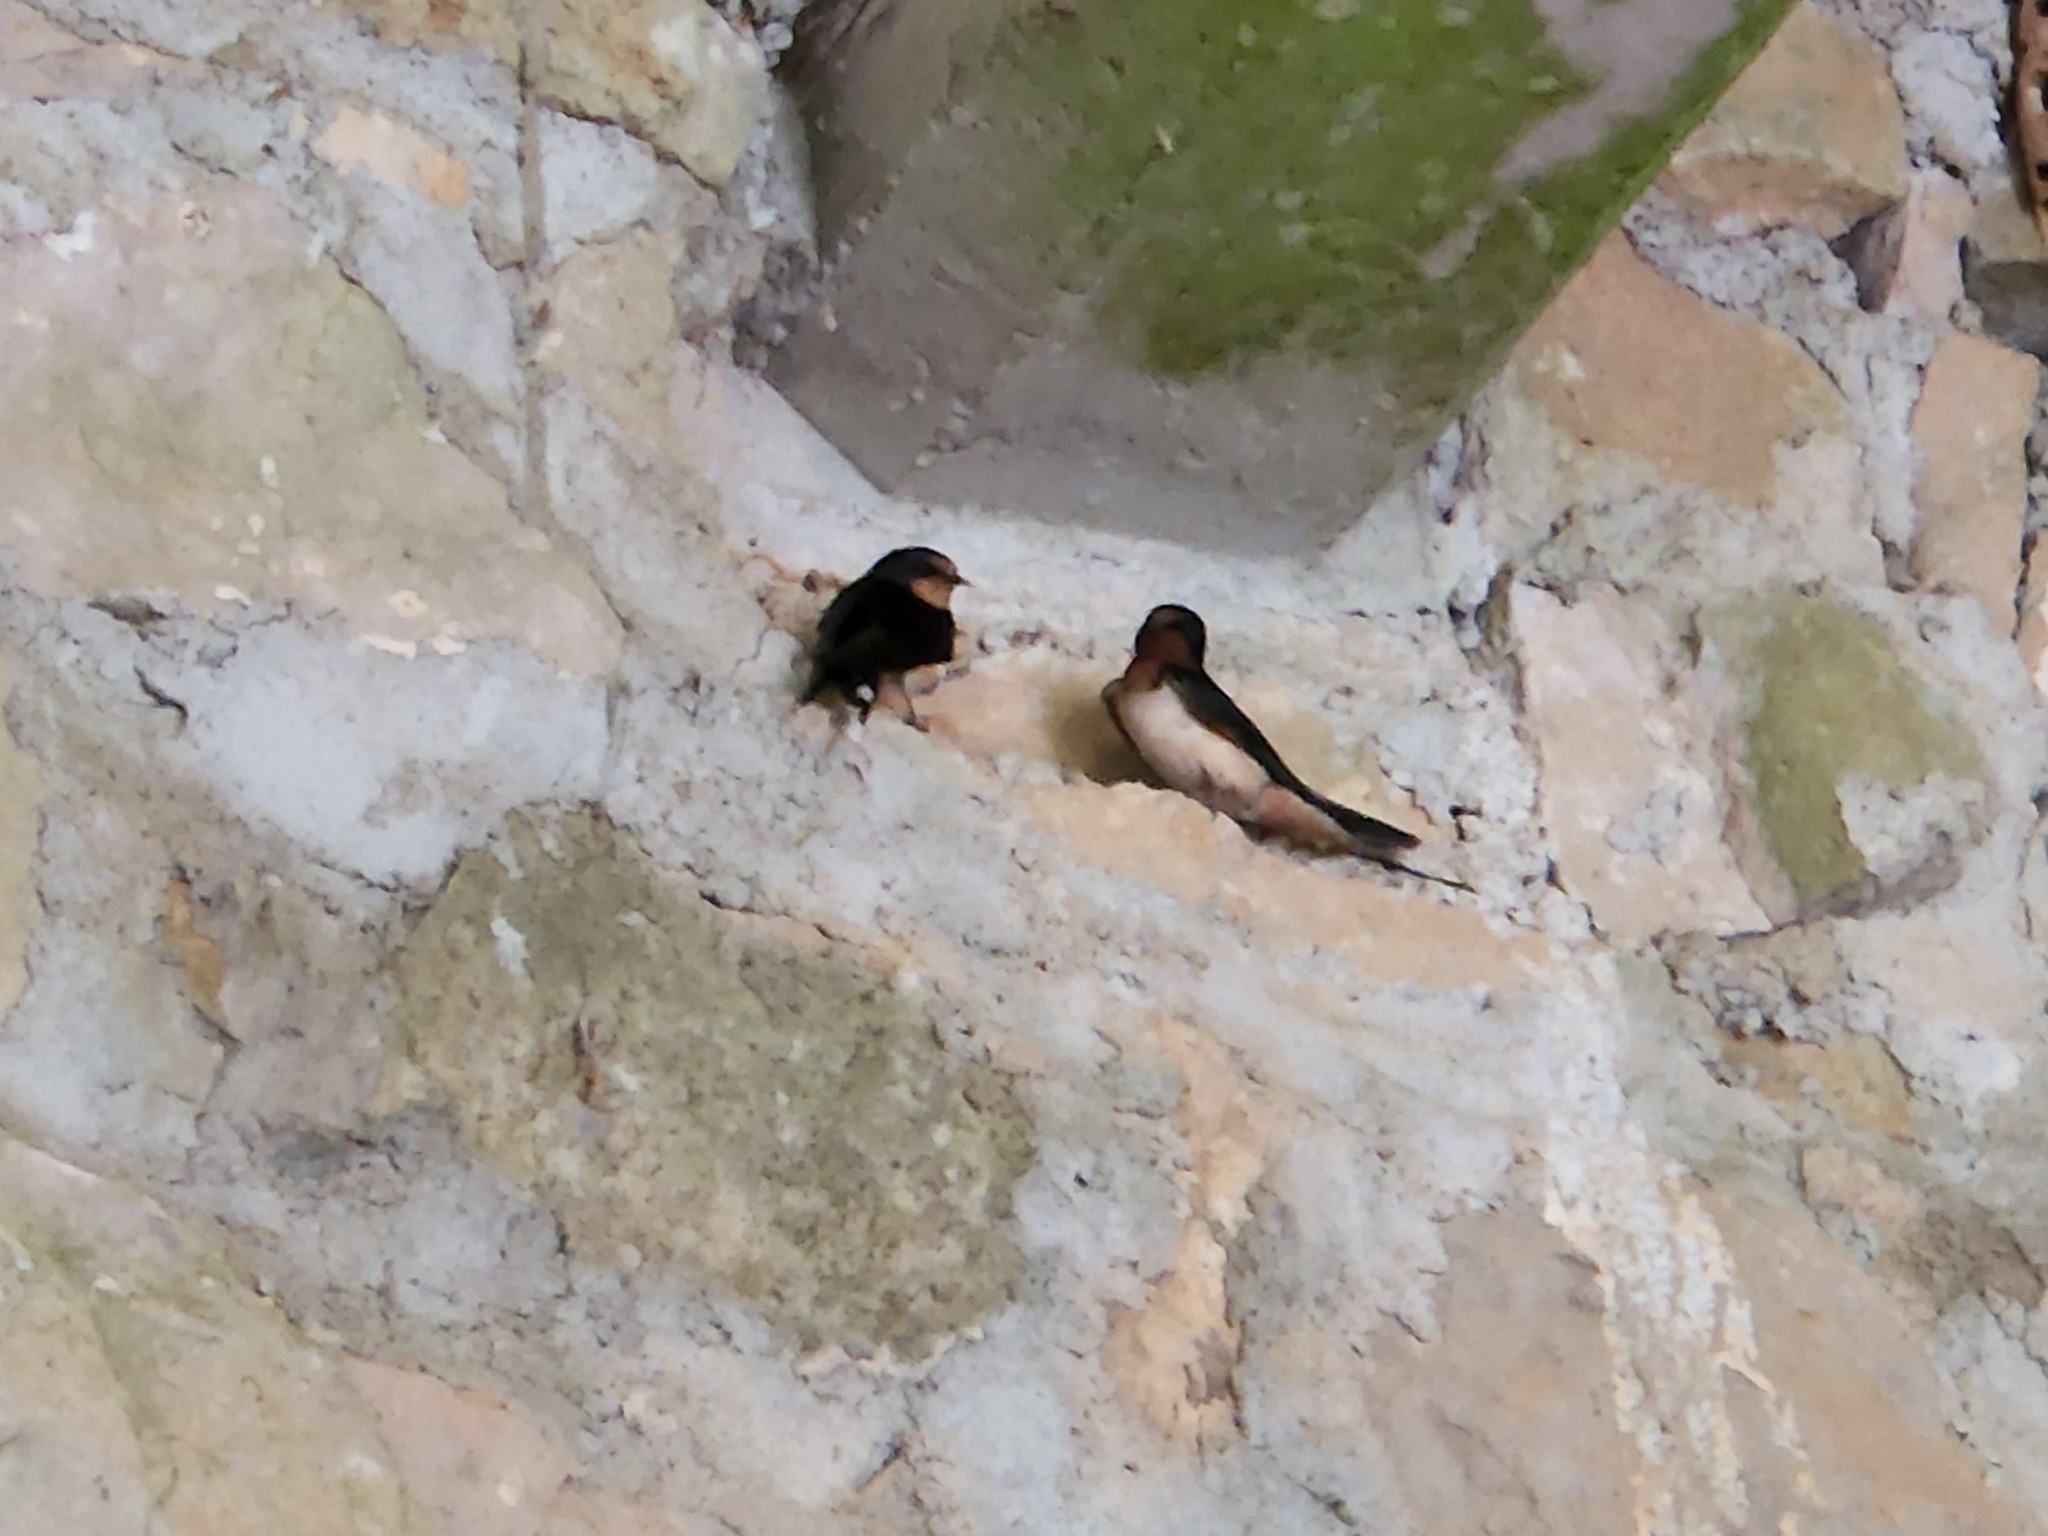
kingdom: Animalia
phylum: Chordata
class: Aves
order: Passeriformes
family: Hirundinidae
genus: Hirundo
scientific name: Hirundo rustica
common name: Barn swallow
